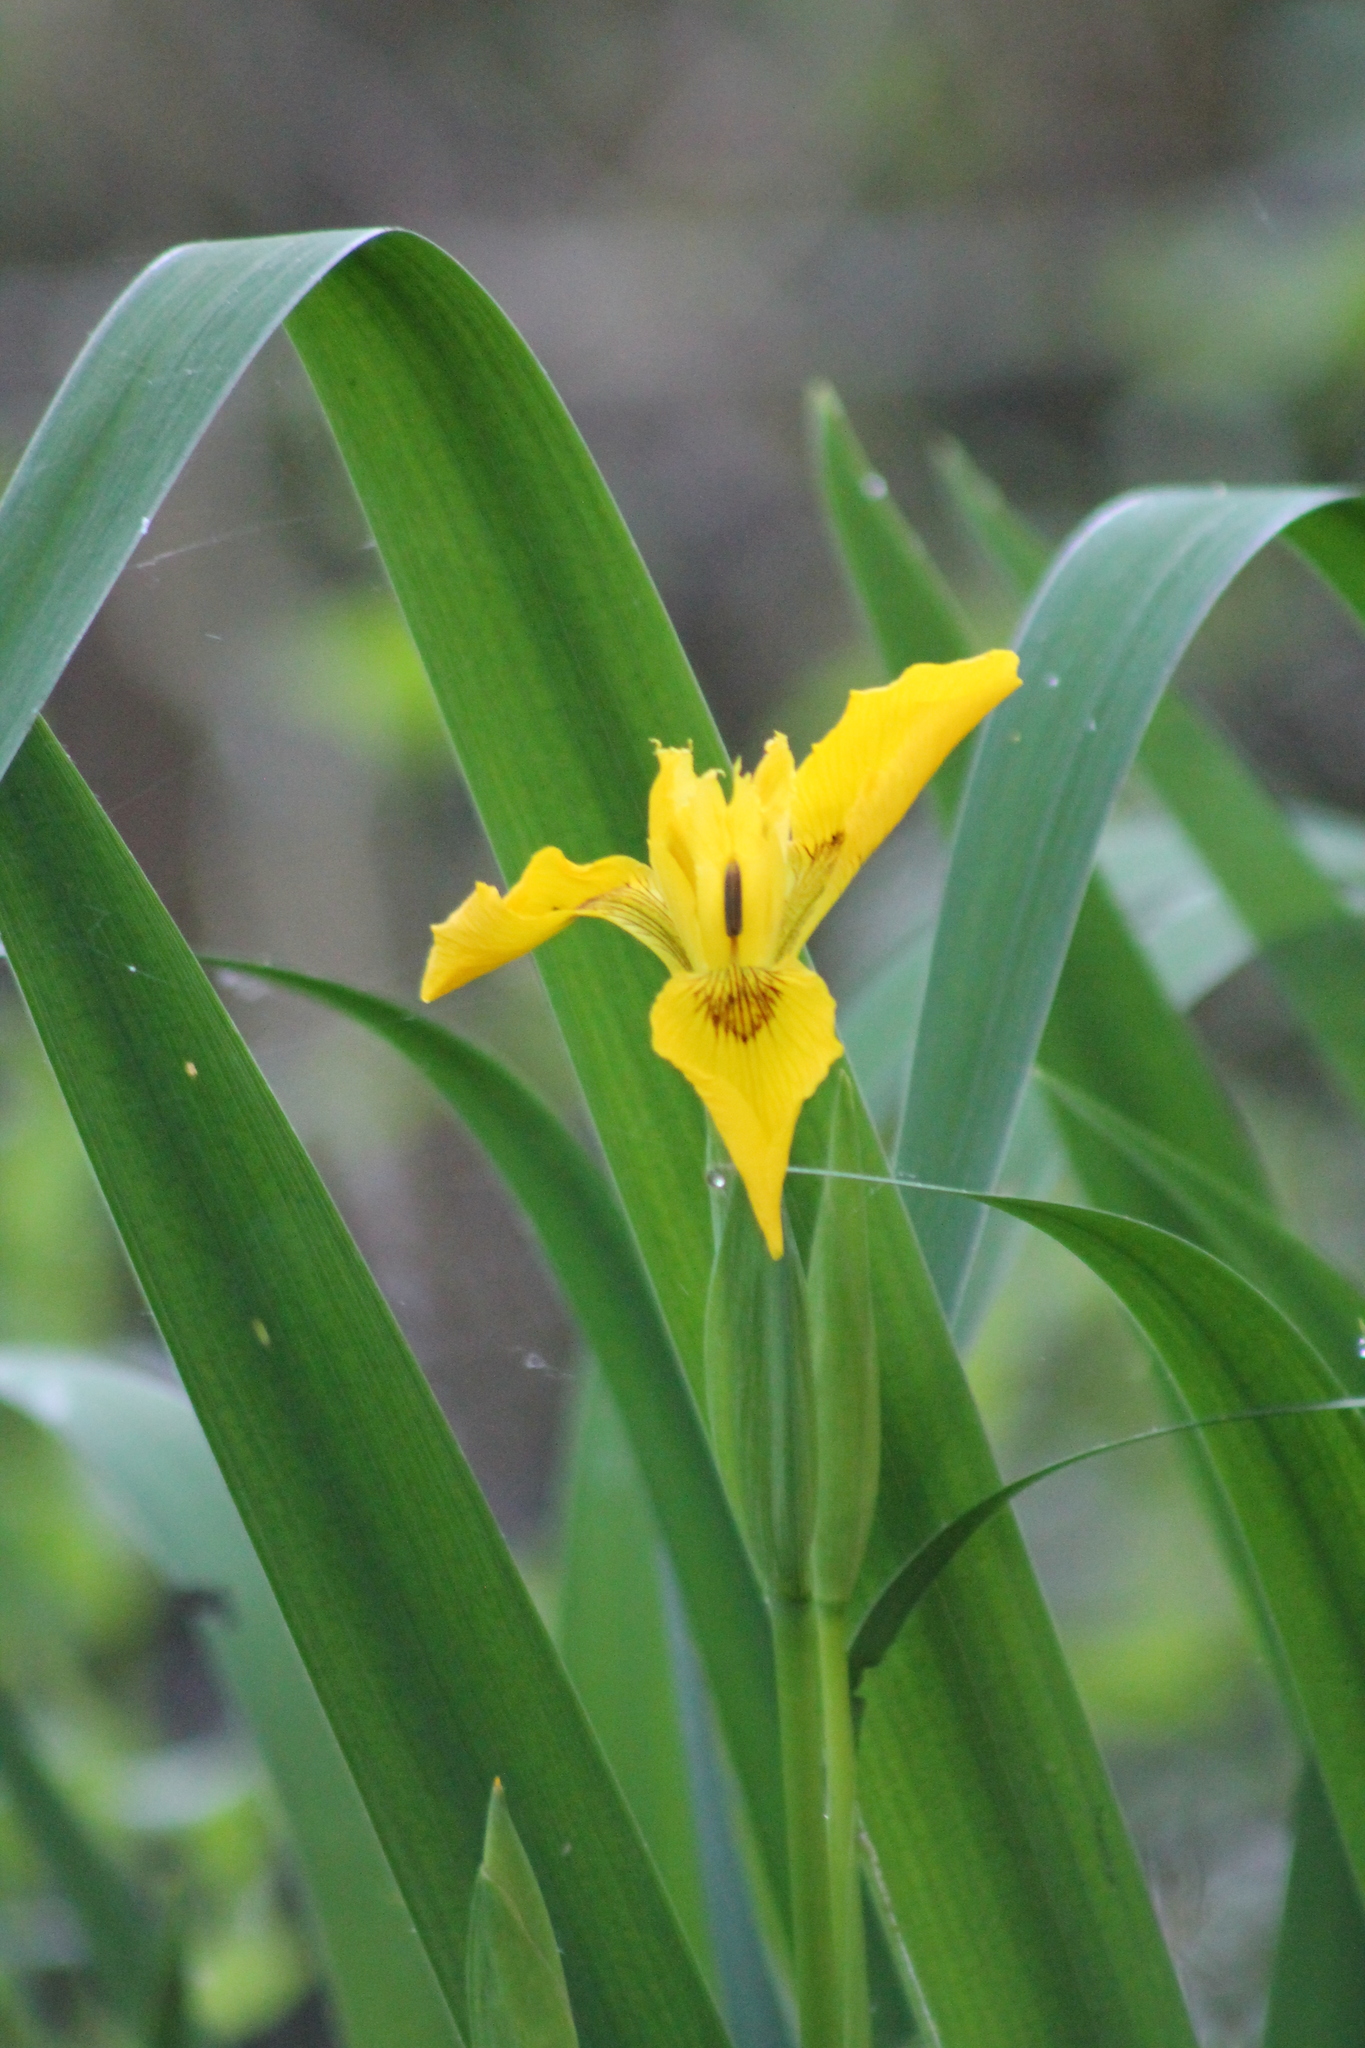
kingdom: Plantae
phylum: Tracheophyta
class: Liliopsida
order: Asparagales
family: Iridaceae
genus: Iris
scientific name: Iris pseudacorus
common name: Yellow flag
